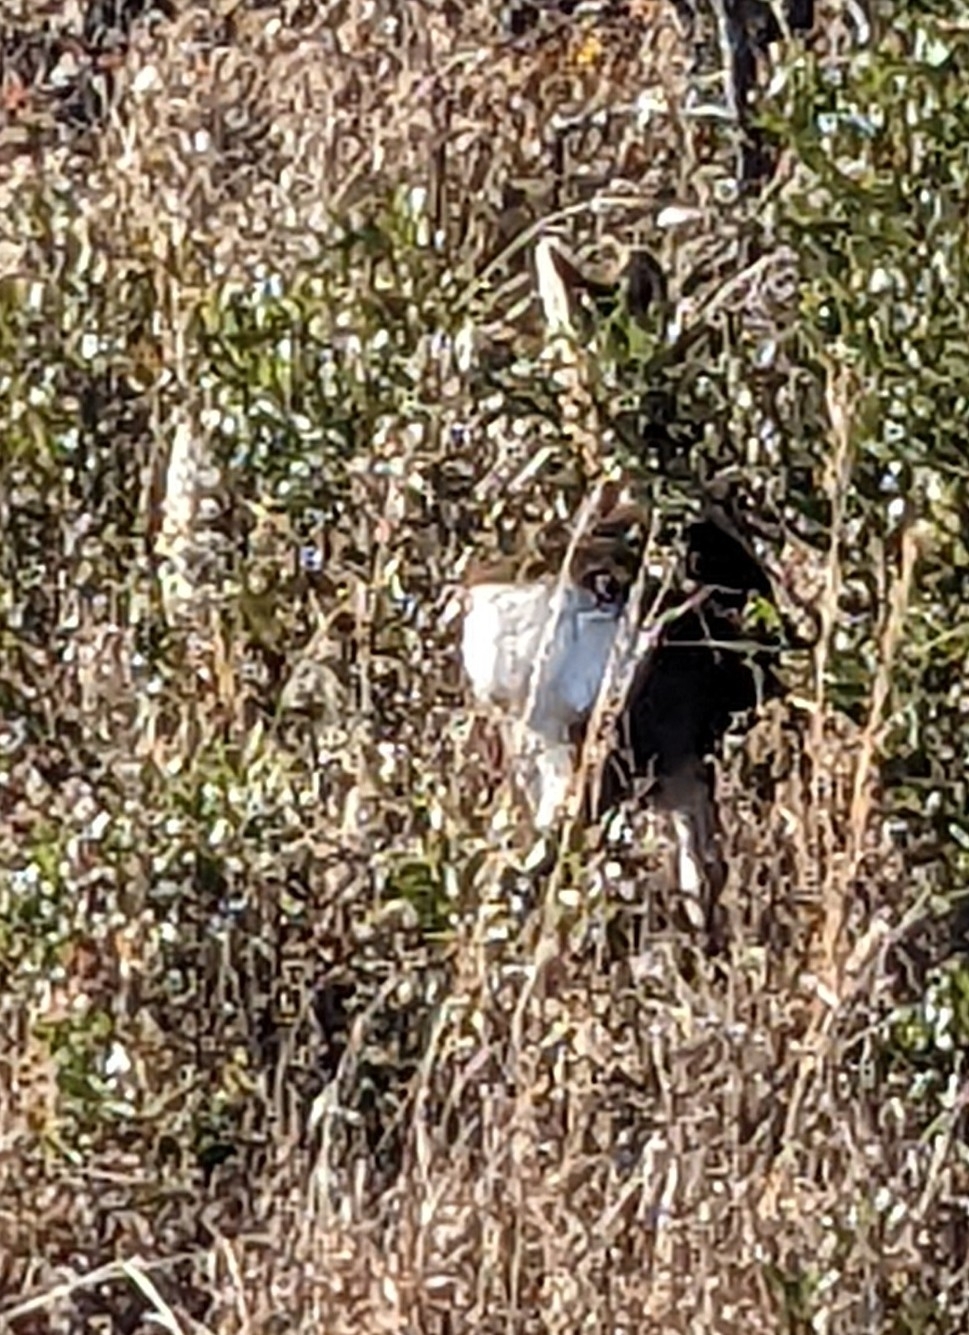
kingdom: Animalia
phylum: Chordata
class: Mammalia
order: Artiodactyla
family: Cervidae
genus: Cervus
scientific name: Cervus nippon
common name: Sika deer
